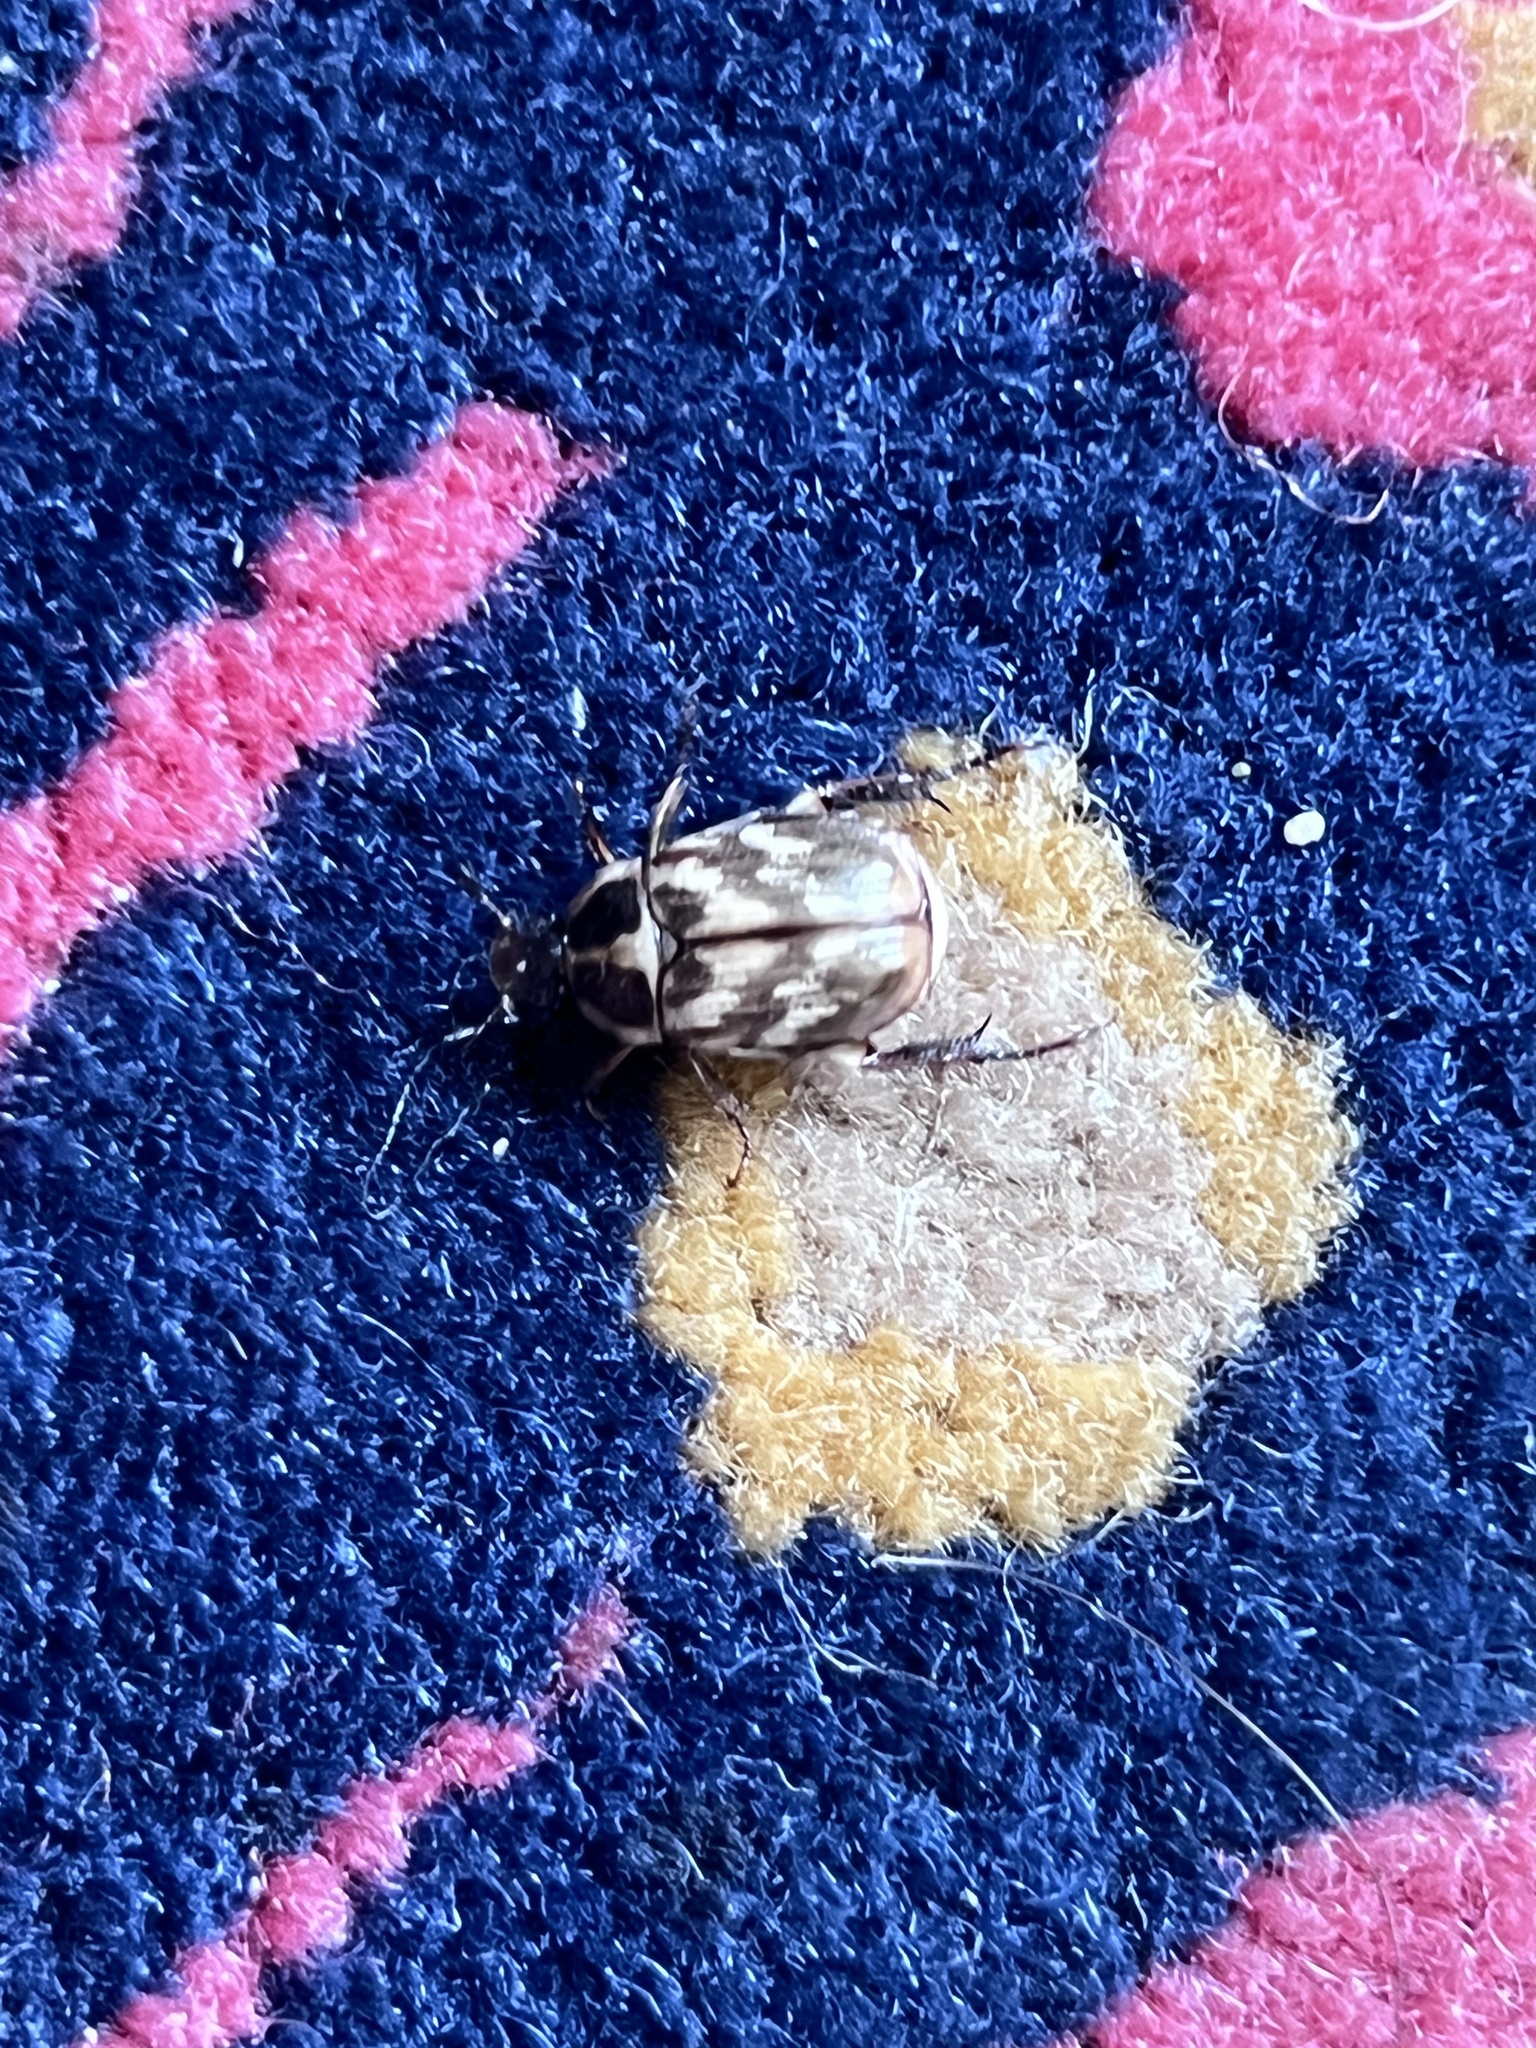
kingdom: Animalia
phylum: Arthropoda
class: Insecta
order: Coleoptera
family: Scarabaeidae
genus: Exomala
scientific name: Exomala orientalis
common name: Oriental beetle
